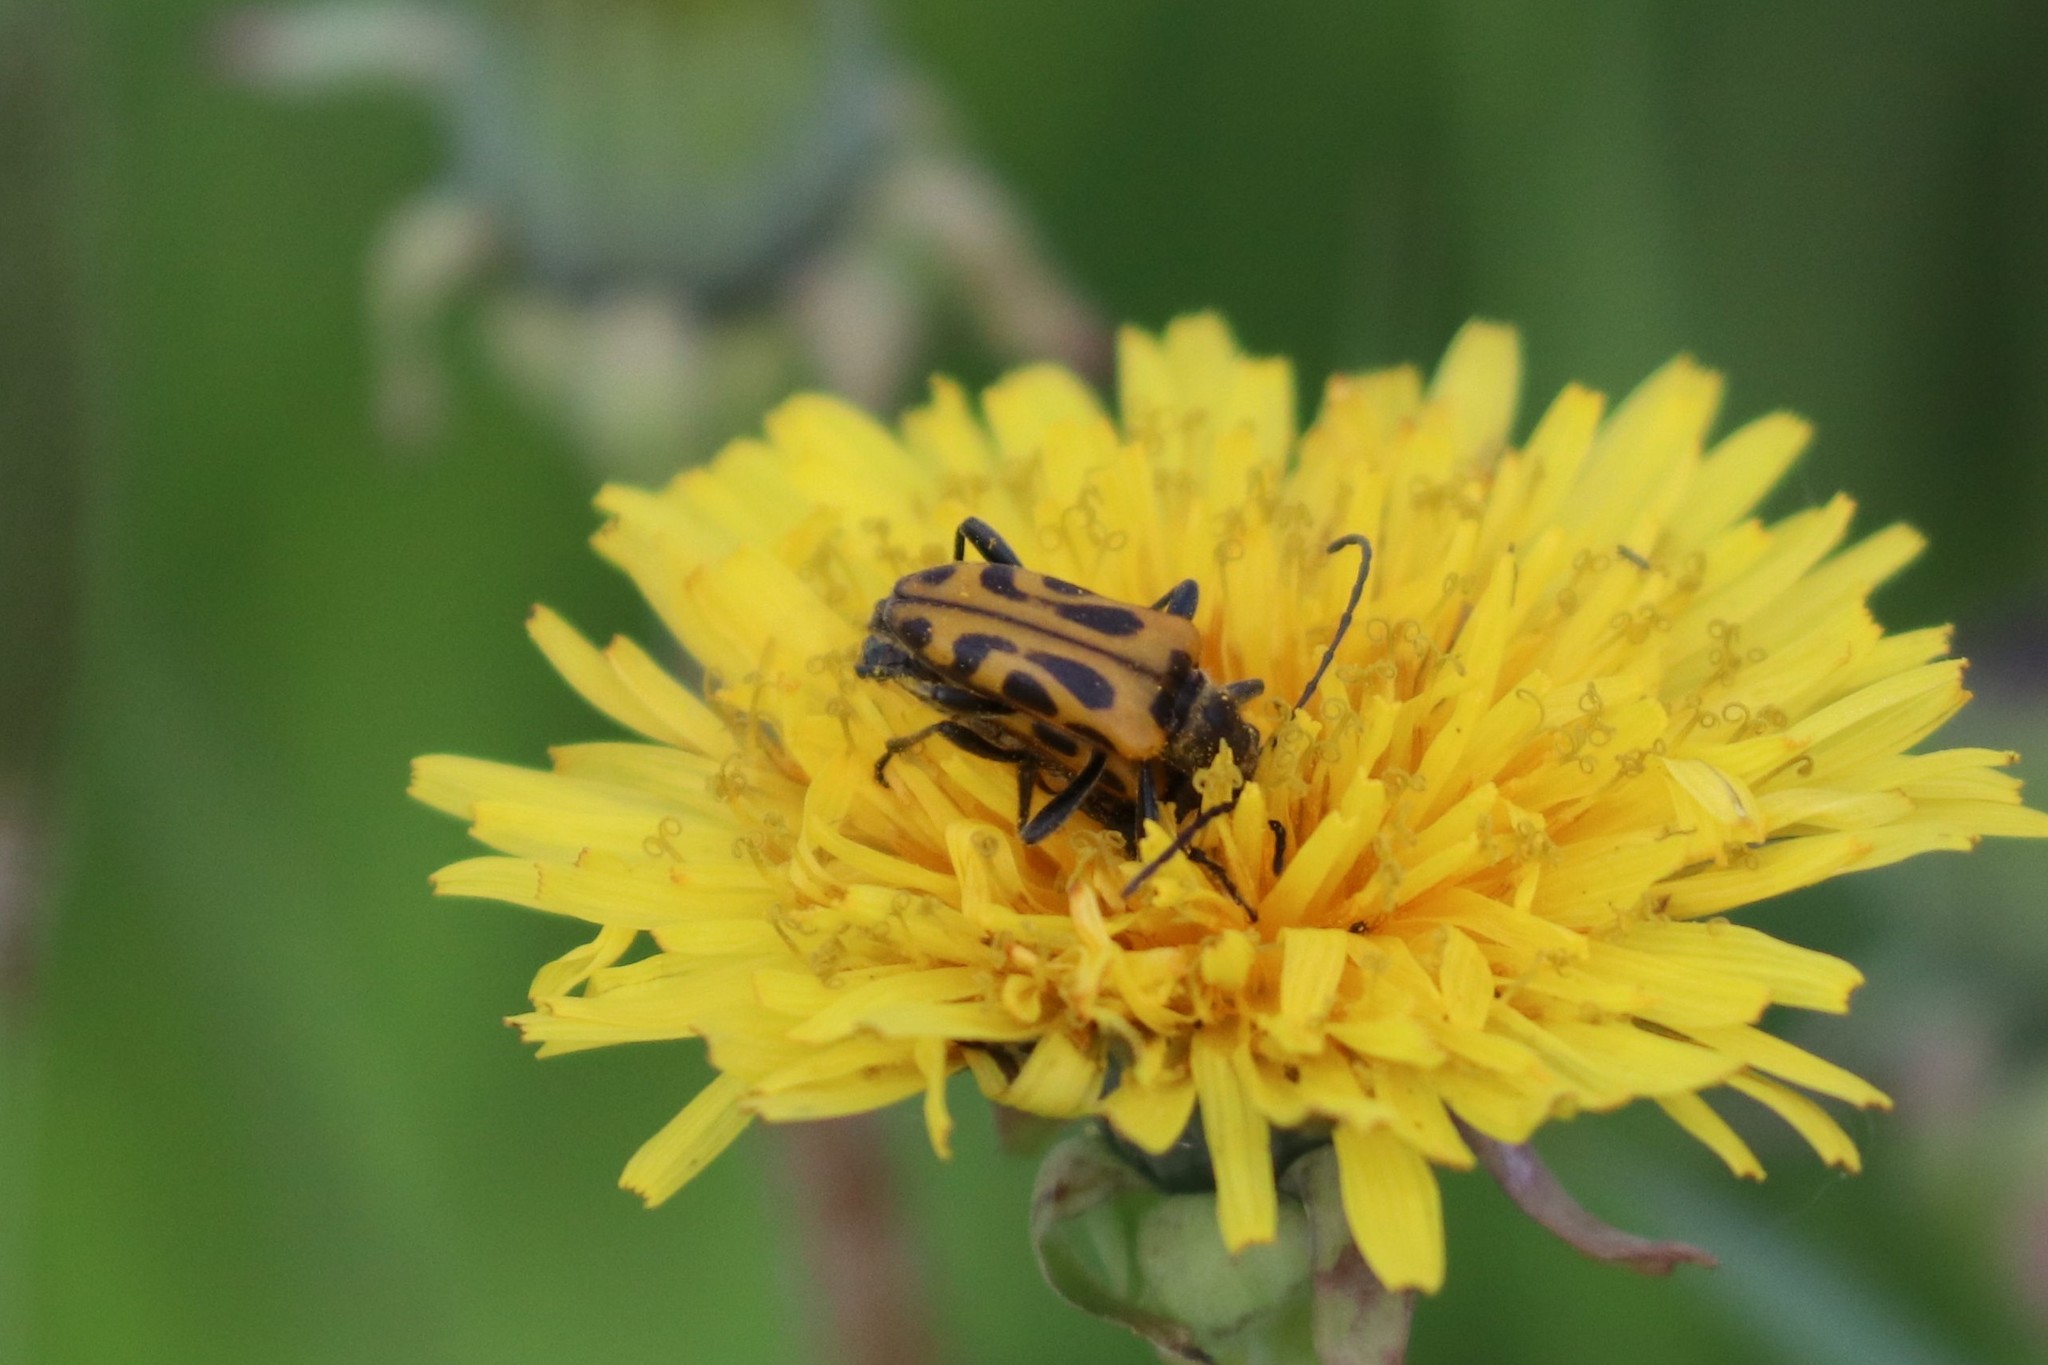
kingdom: Animalia
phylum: Arthropoda
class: Insecta
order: Coleoptera
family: Cerambycidae
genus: Brachyta
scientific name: Brachyta interrogationis
